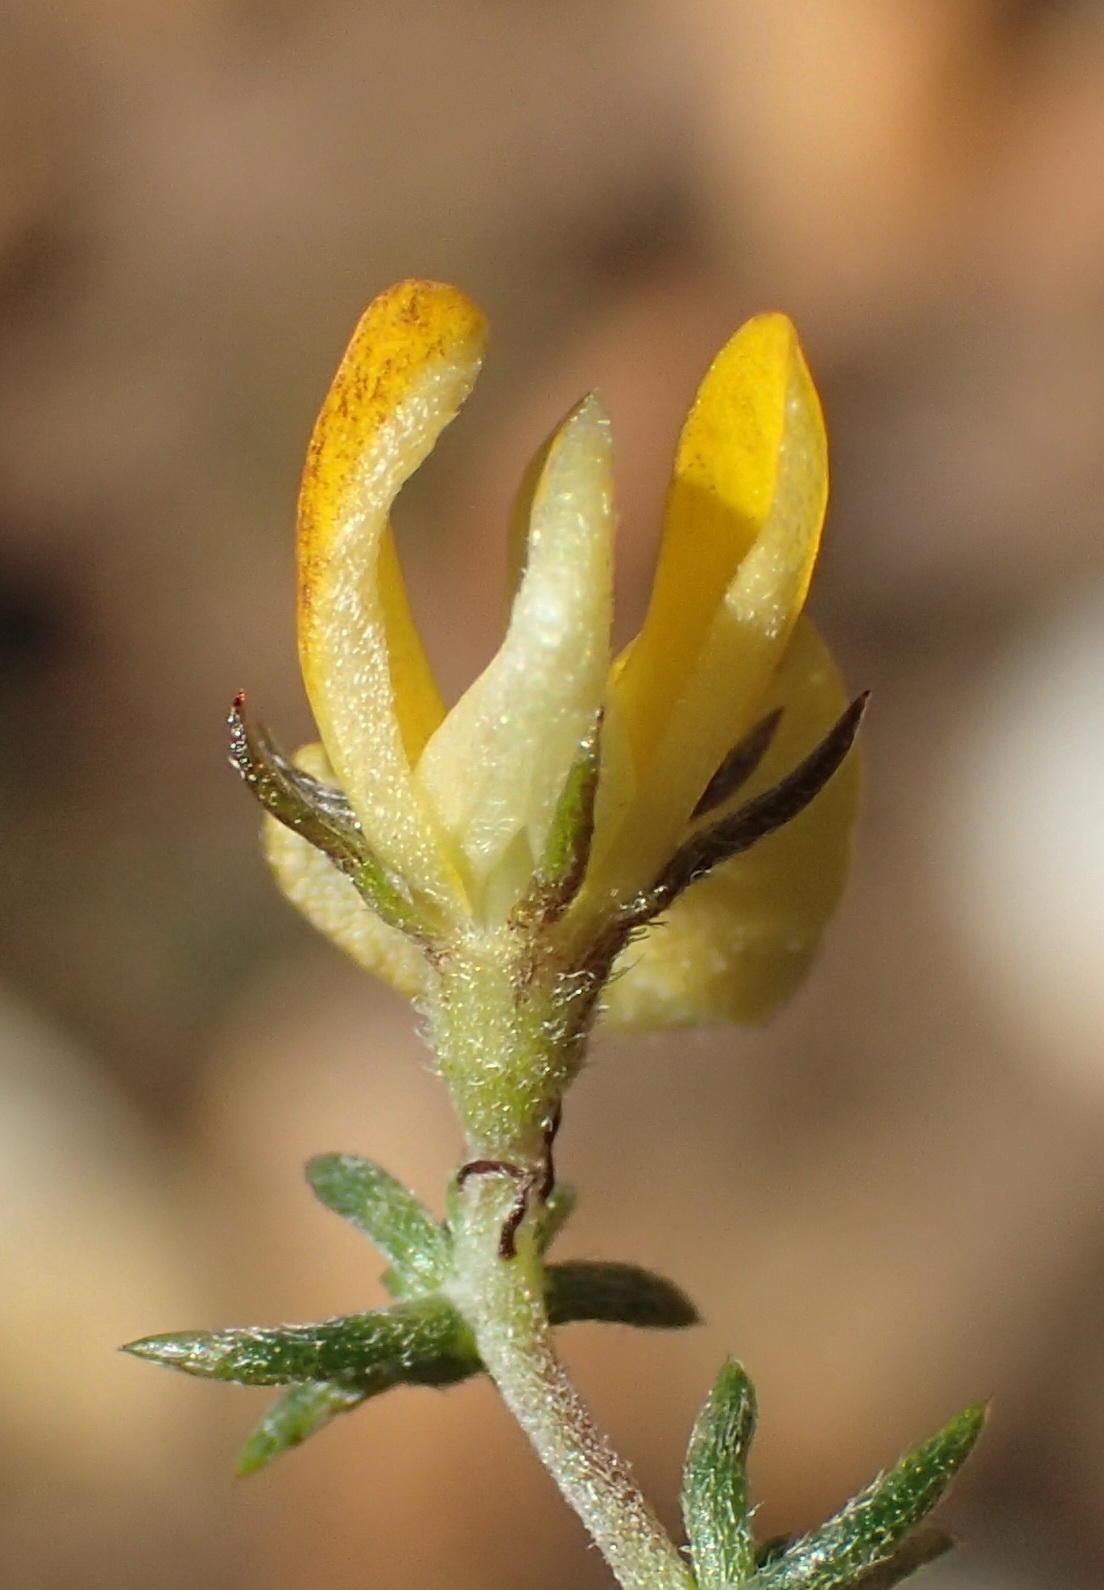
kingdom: Plantae
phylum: Tracheophyta
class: Magnoliopsida
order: Fabales
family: Fabaceae
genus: Aspalathus
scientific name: Aspalathus rubens
